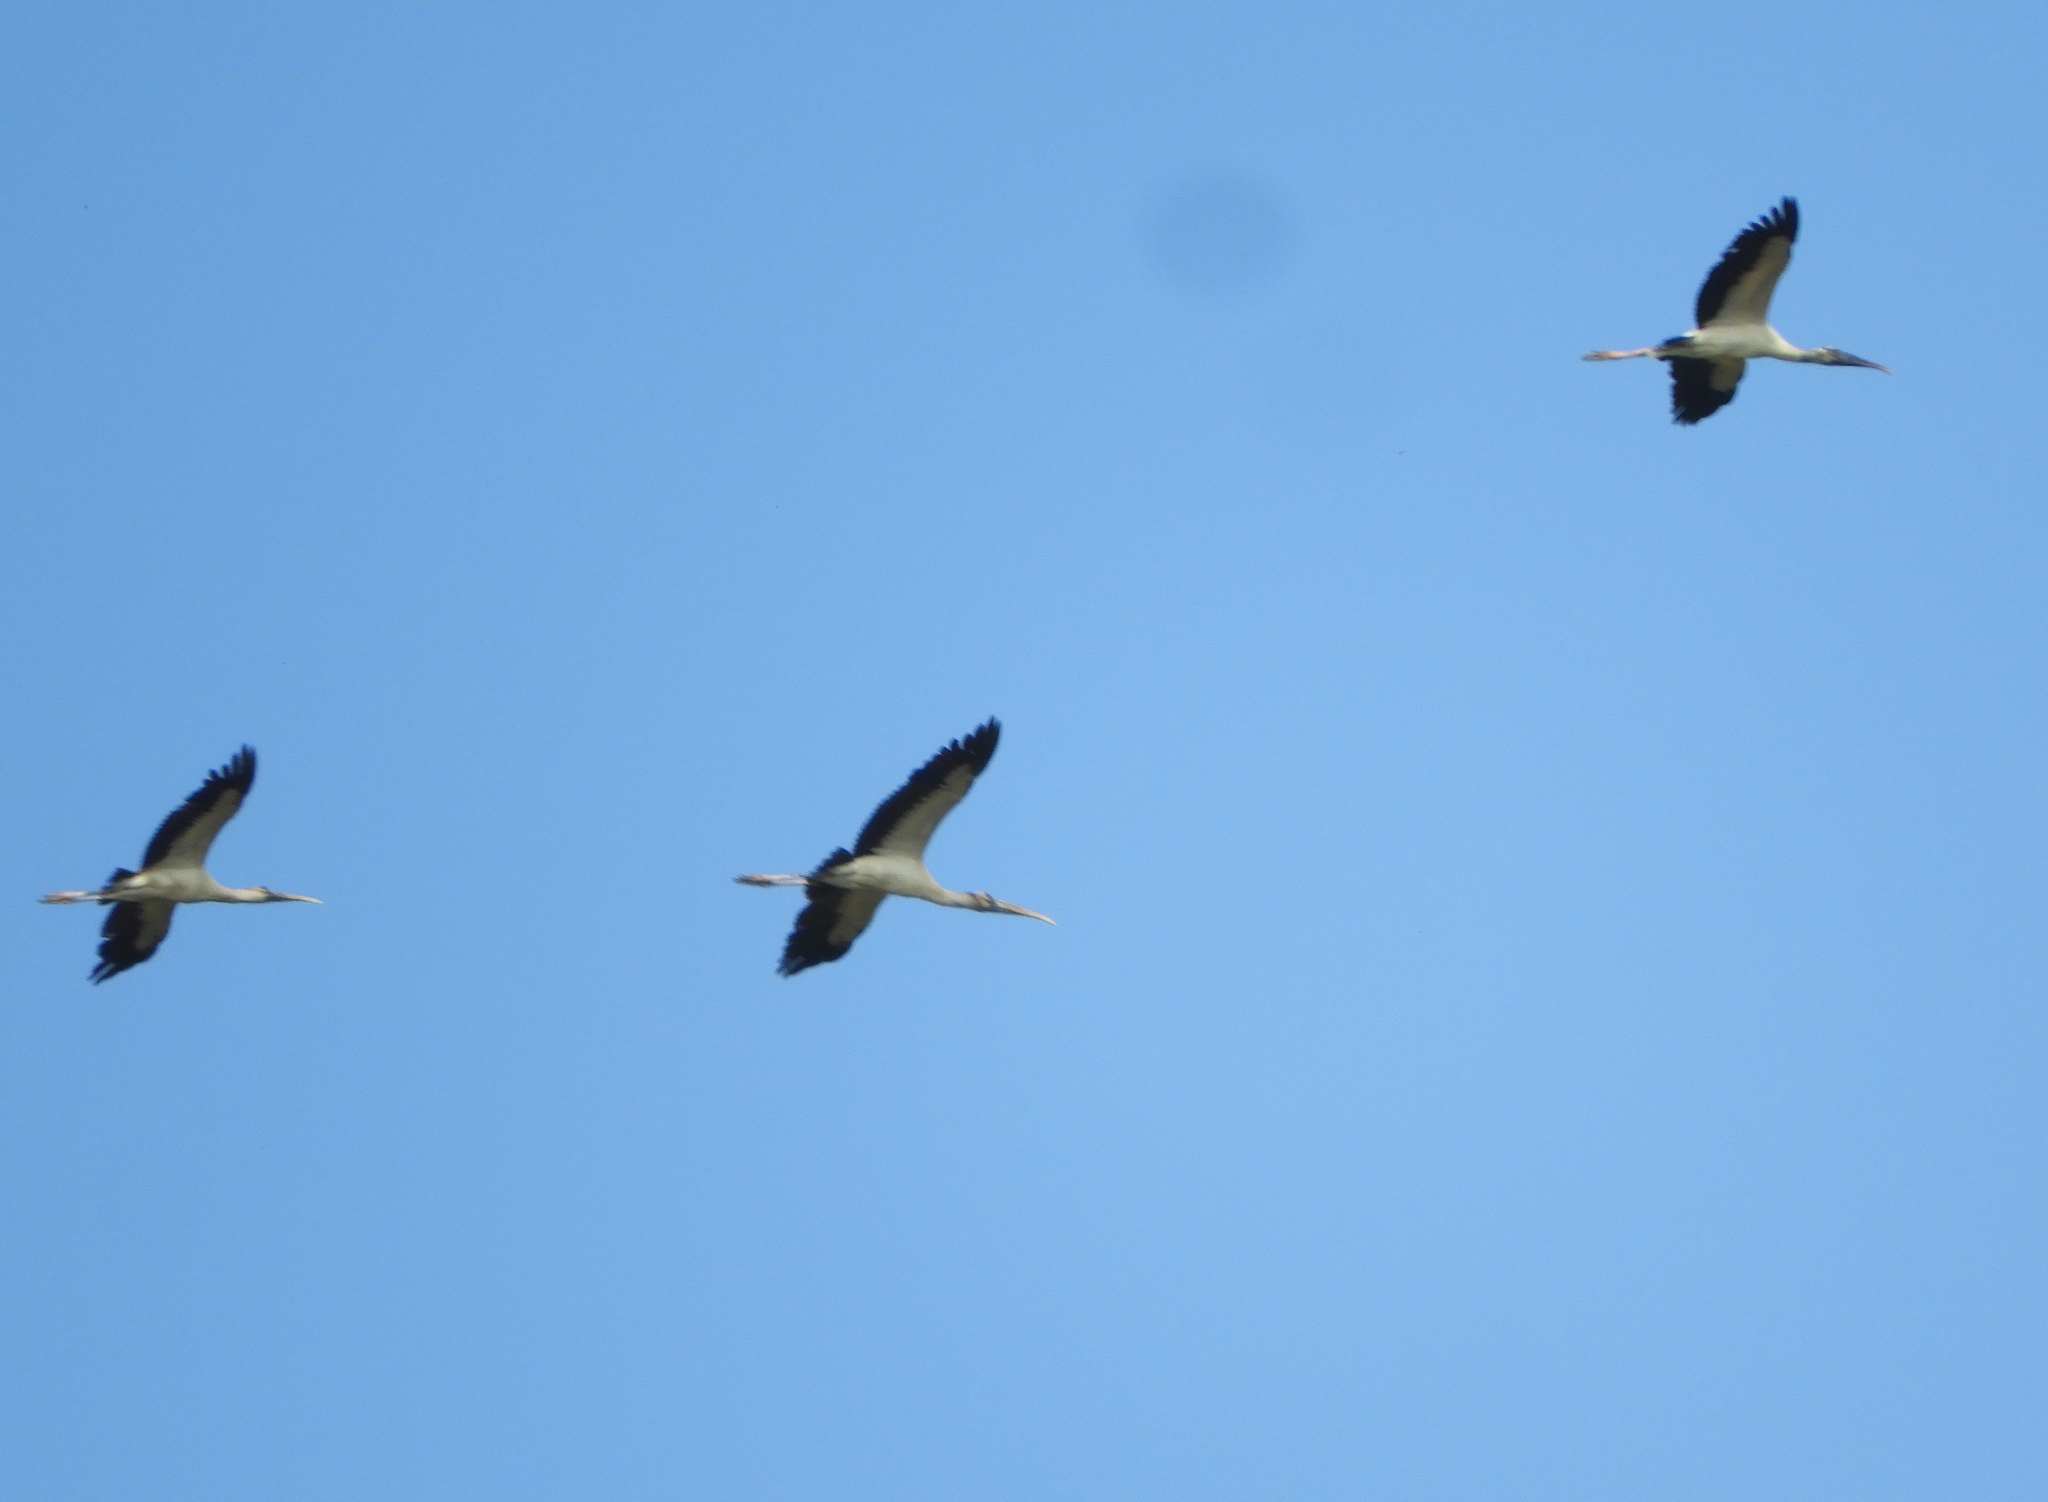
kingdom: Animalia
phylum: Chordata
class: Aves
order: Ciconiiformes
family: Ciconiidae
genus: Mycteria
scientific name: Mycteria americana
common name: Wood stork
